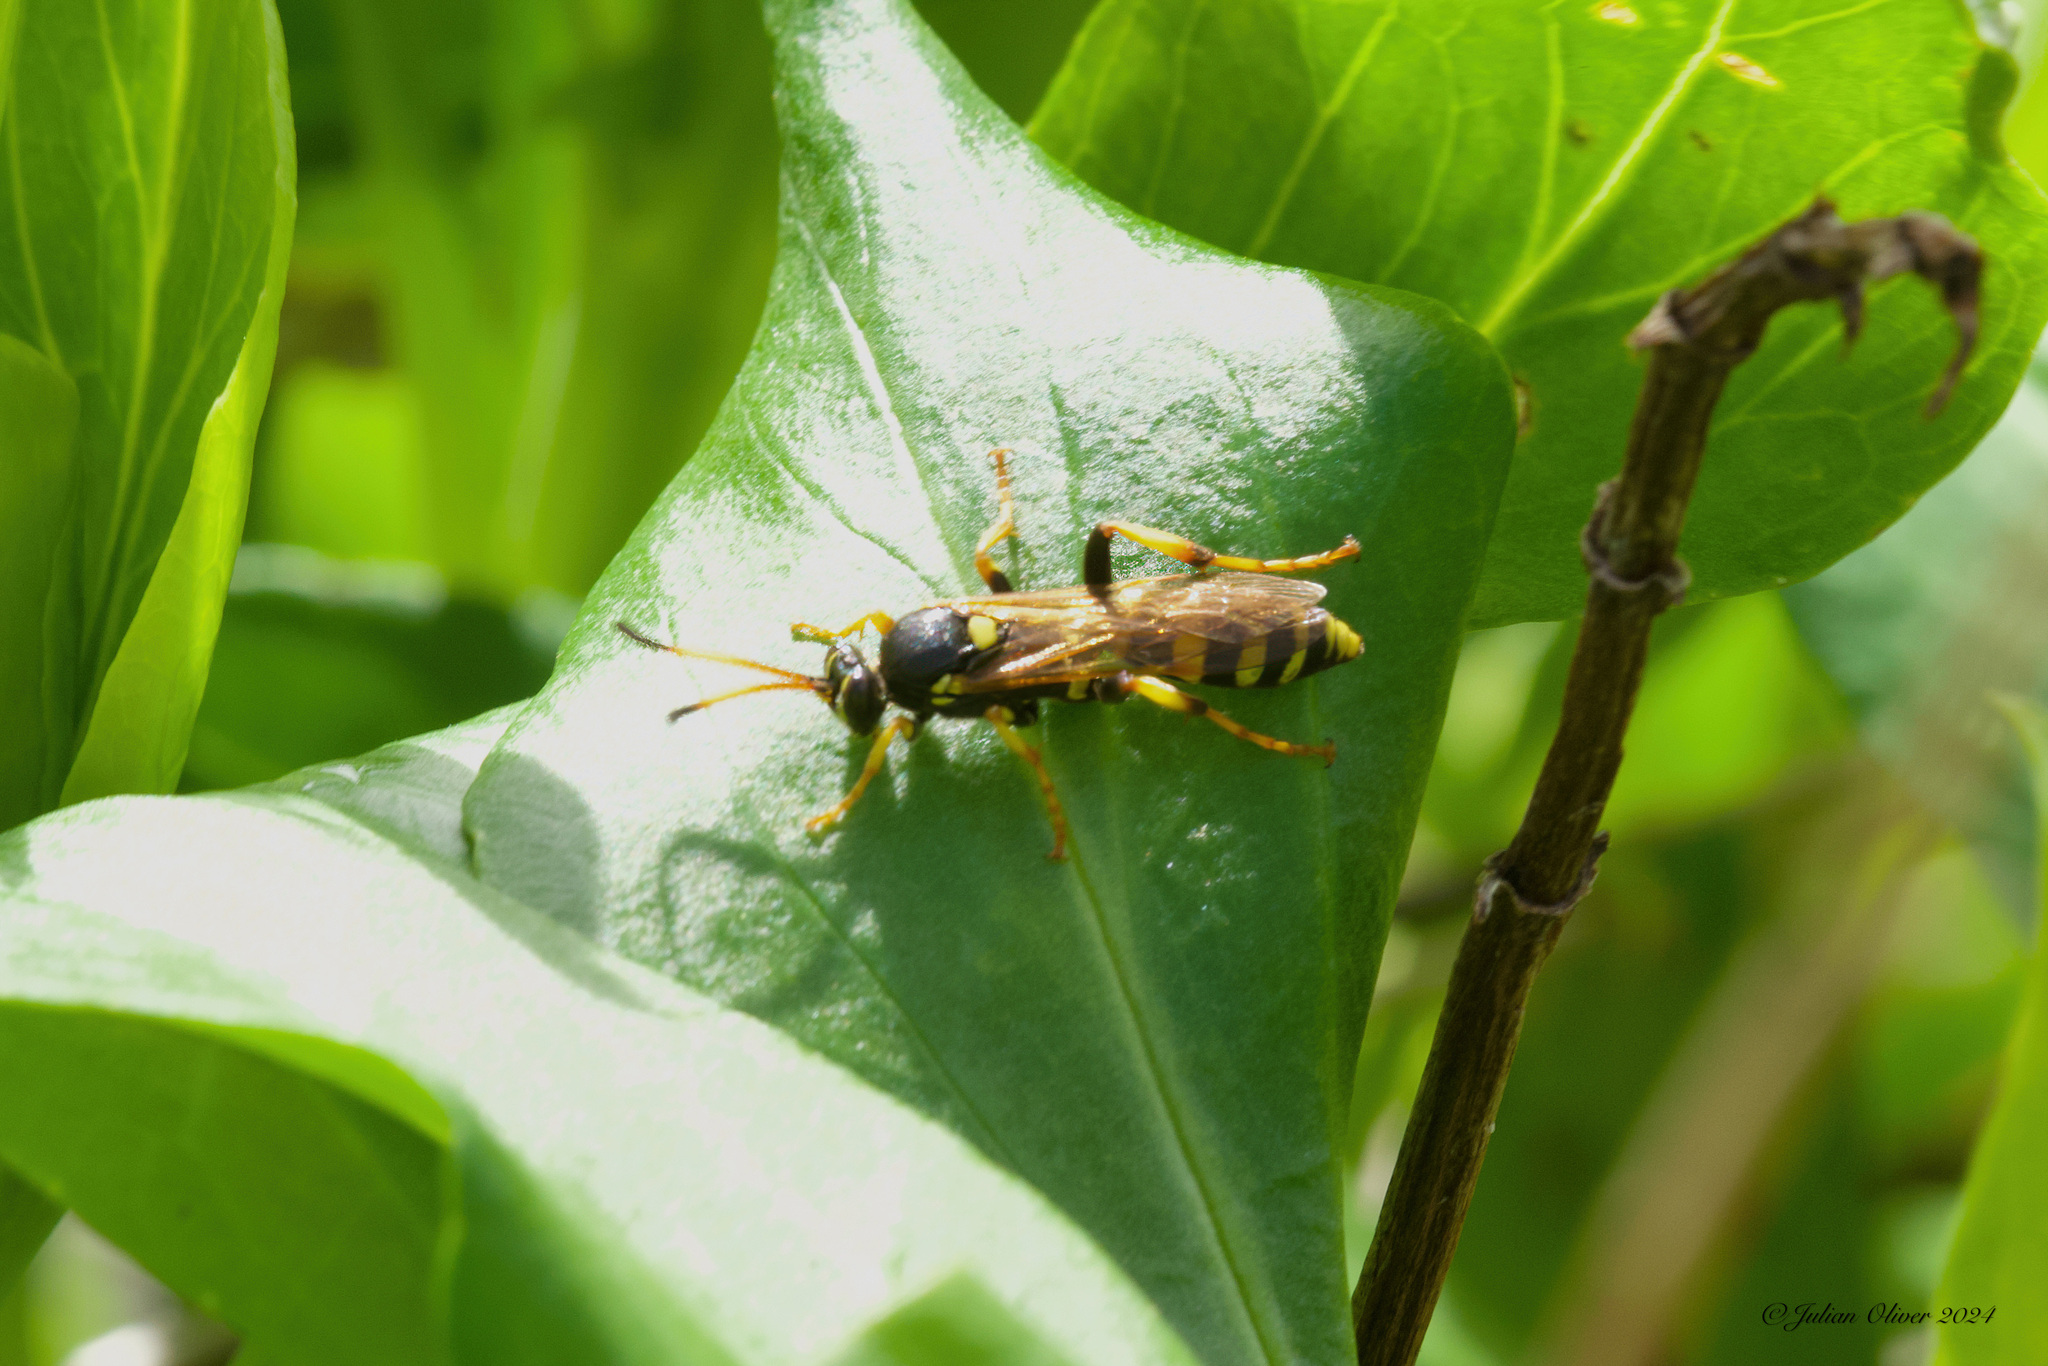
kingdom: Animalia
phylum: Arthropoda
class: Insecta
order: Hymenoptera
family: Ichneumonidae
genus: Ichneumon
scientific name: Ichneumon xanthorius
